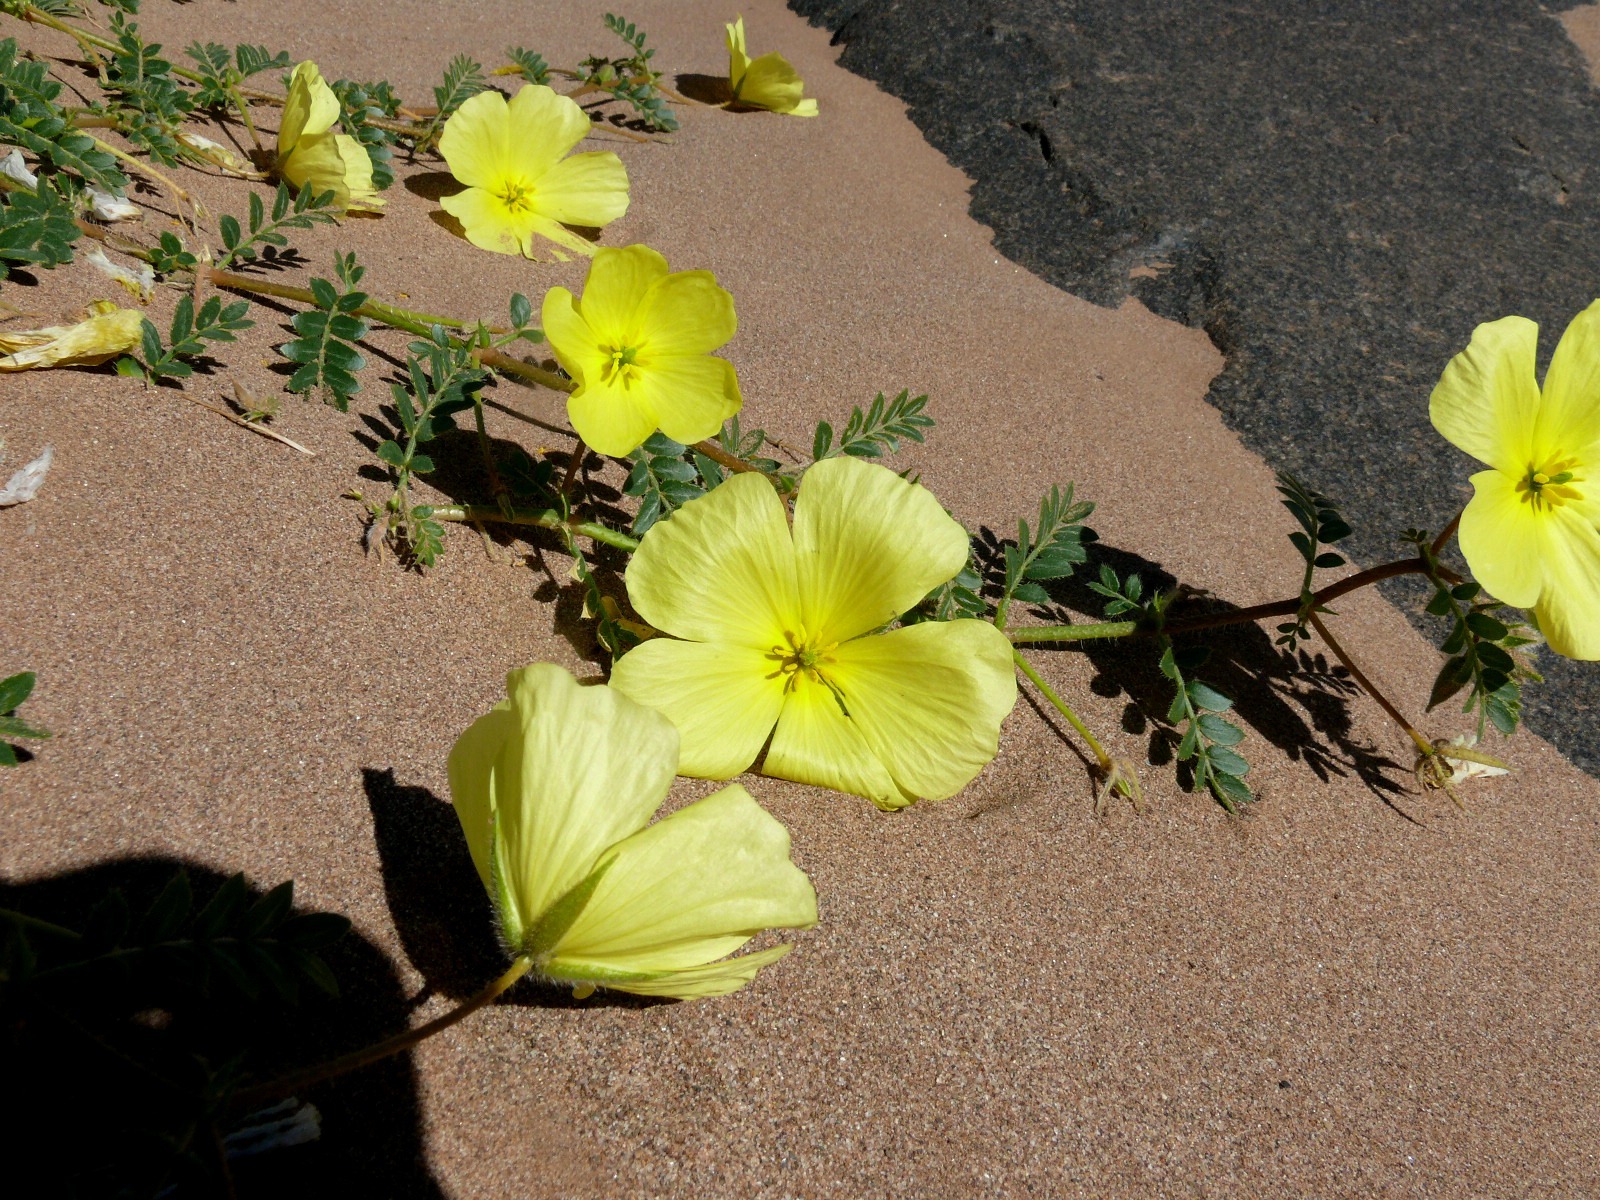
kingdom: Plantae
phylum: Tracheophyta
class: Magnoliopsida
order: Zygophyllales
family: Zygophyllaceae
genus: Tribulus
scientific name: Tribulus pentandrus
